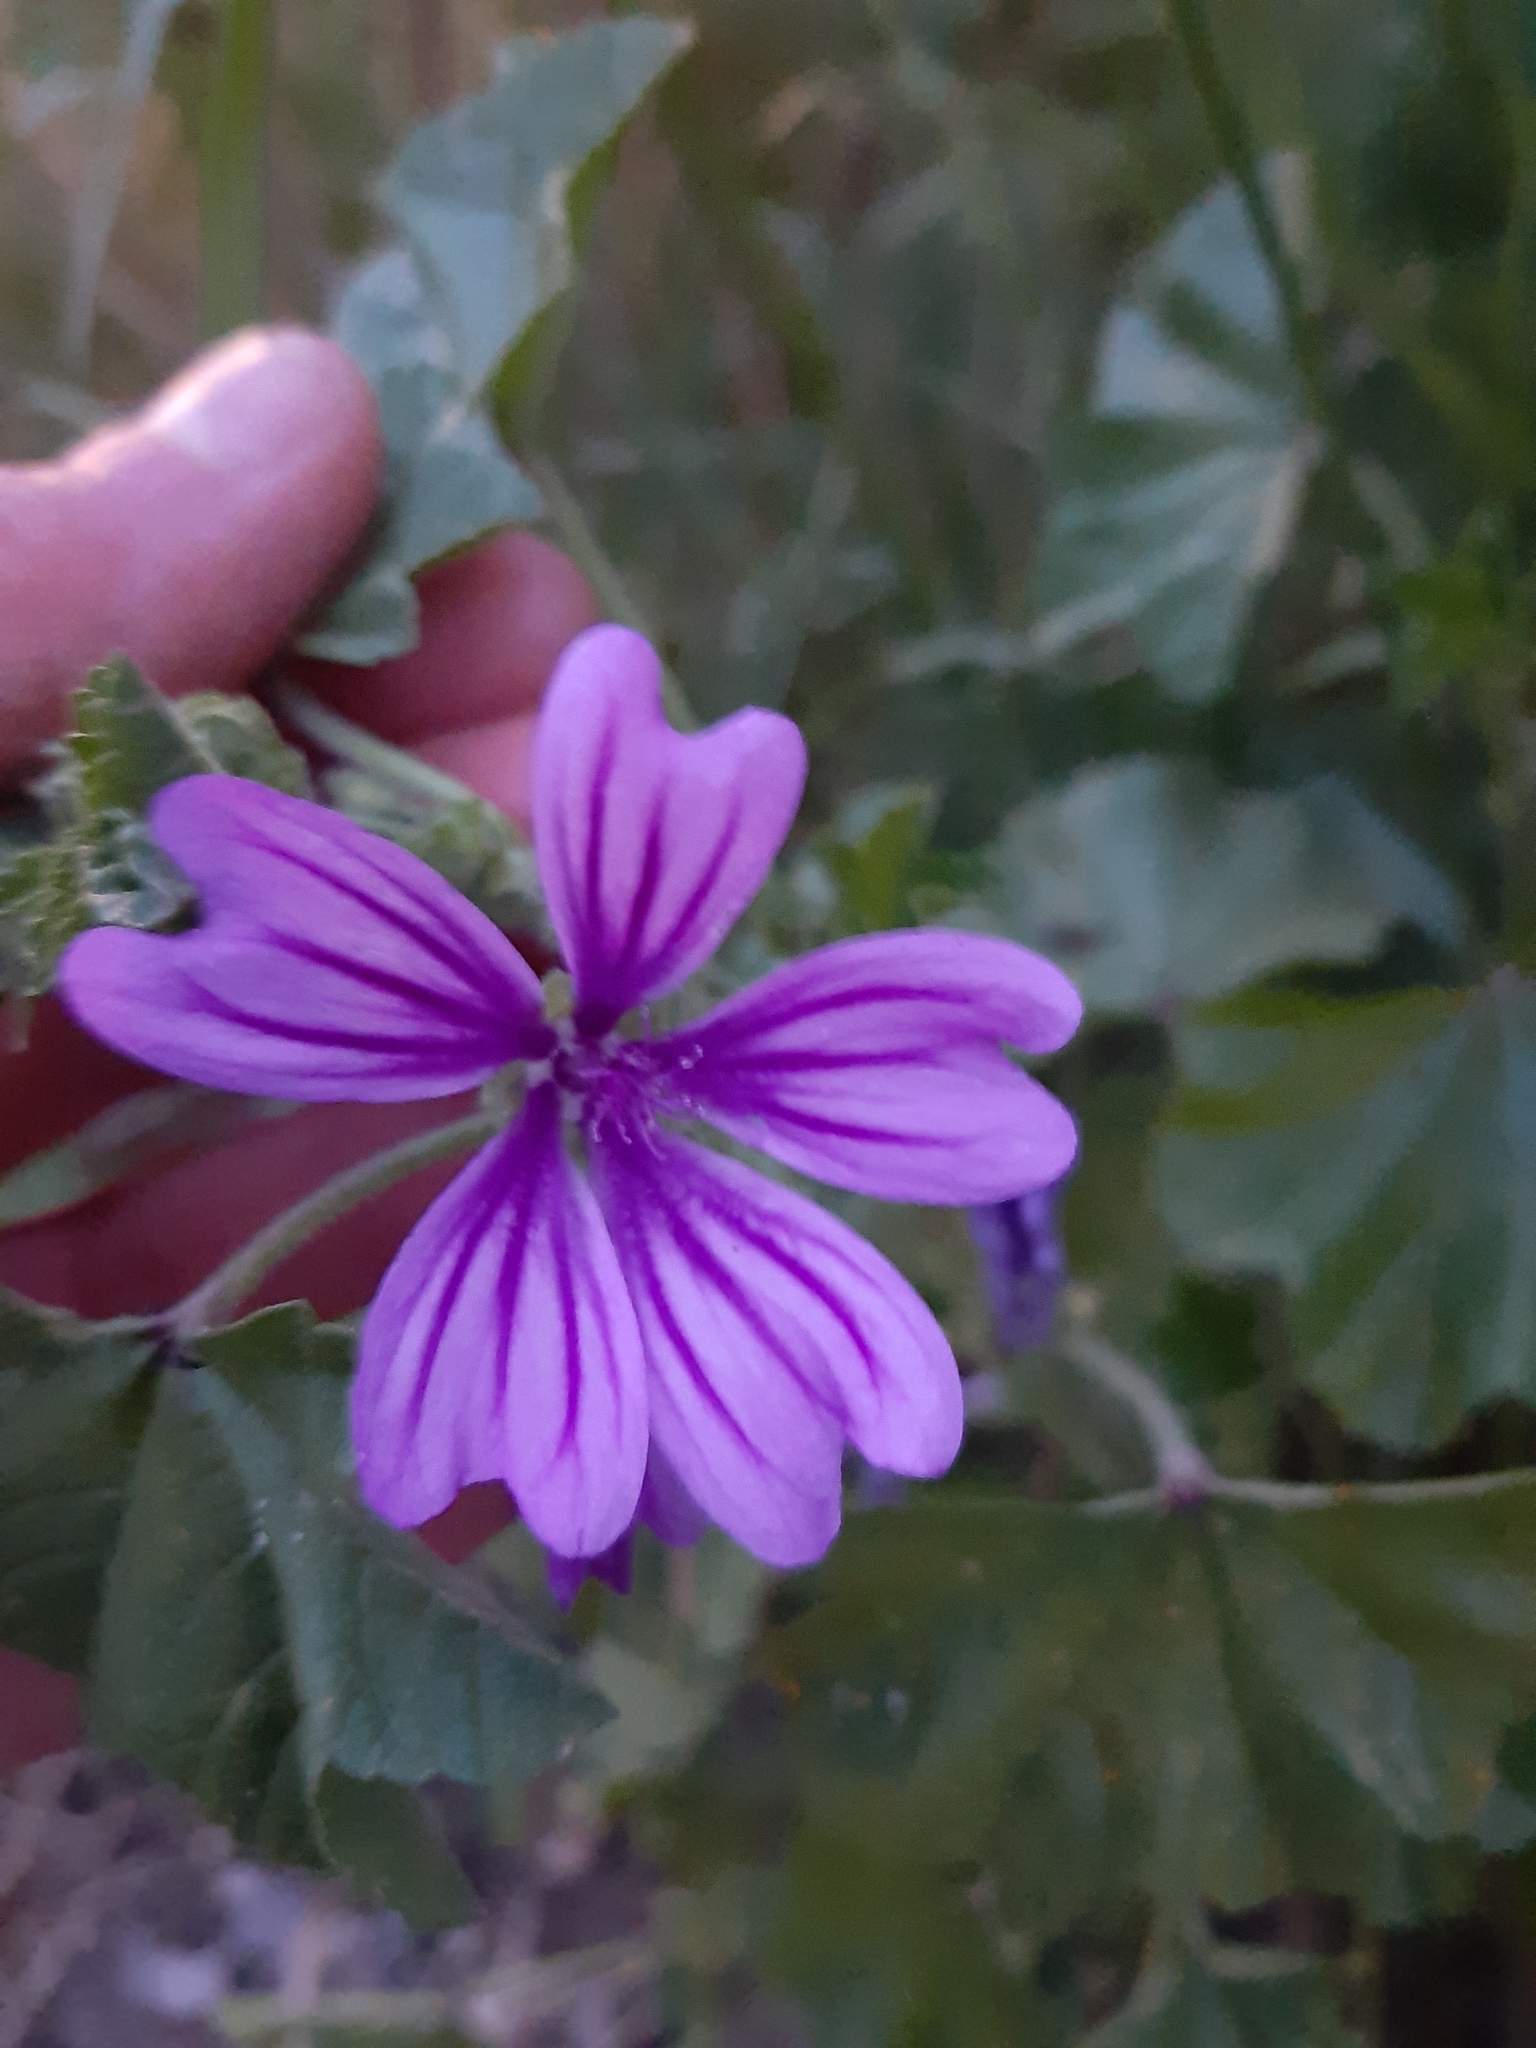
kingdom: Plantae
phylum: Tracheophyta
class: Magnoliopsida
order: Malvales
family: Malvaceae
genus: Malva
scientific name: Malva sylvestris
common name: Common mallow
